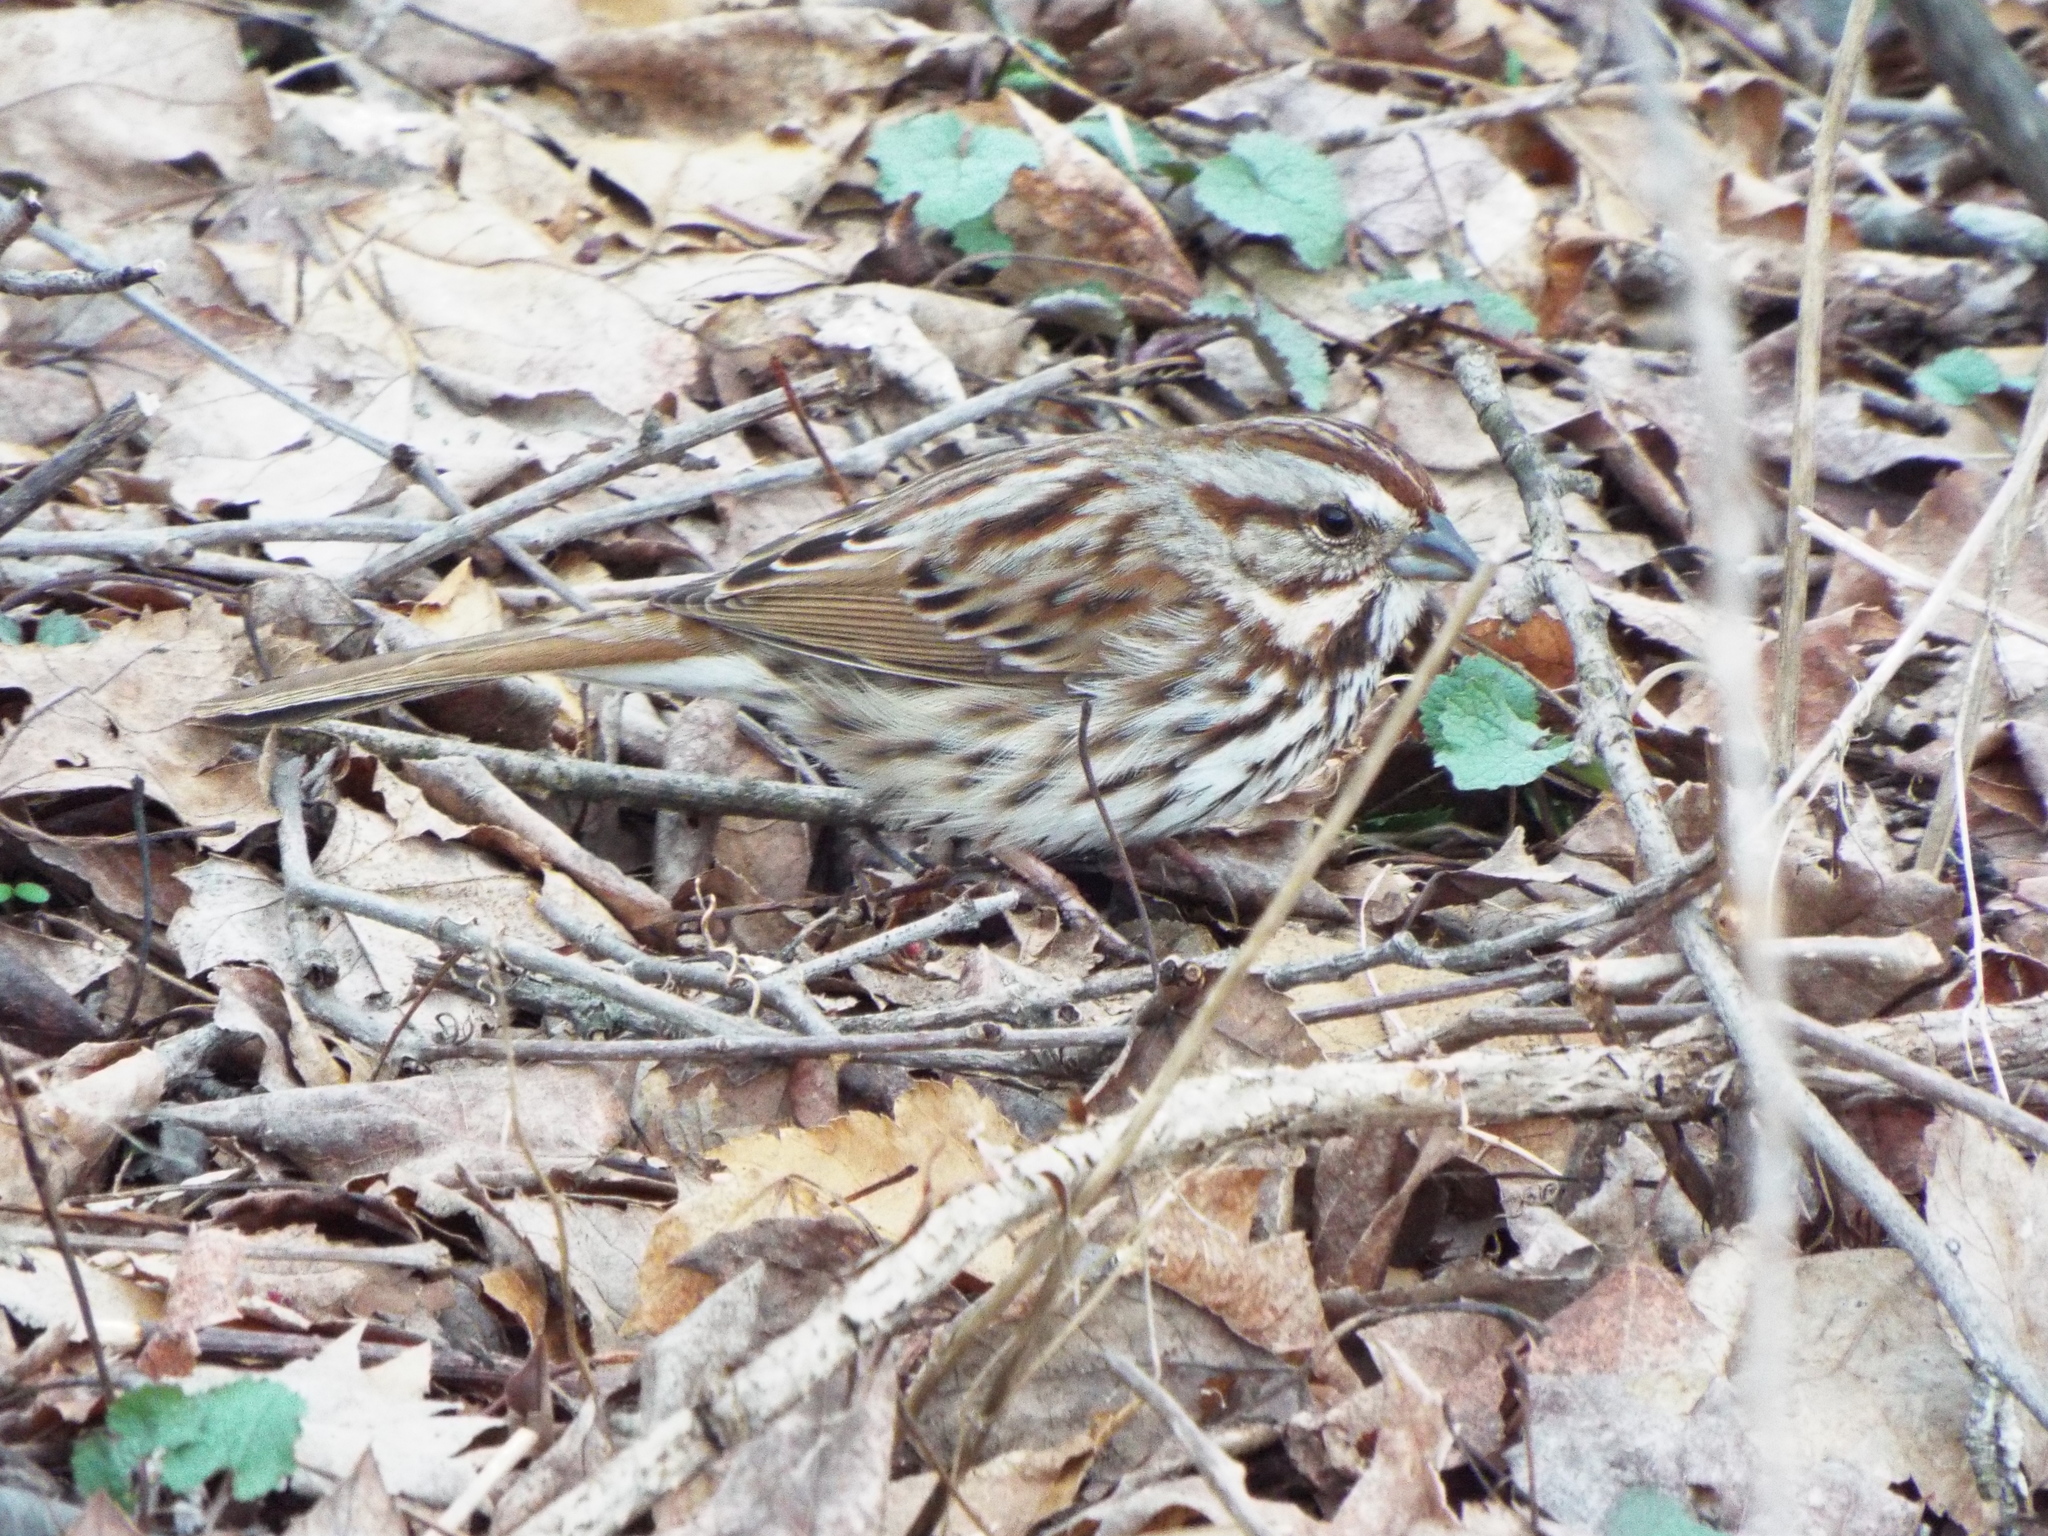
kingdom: Animalia
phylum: Chordata
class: Aves
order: Passeriformes
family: Passerellidae
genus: Melospiza
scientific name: Melospiza melodia
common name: Song sparrow
